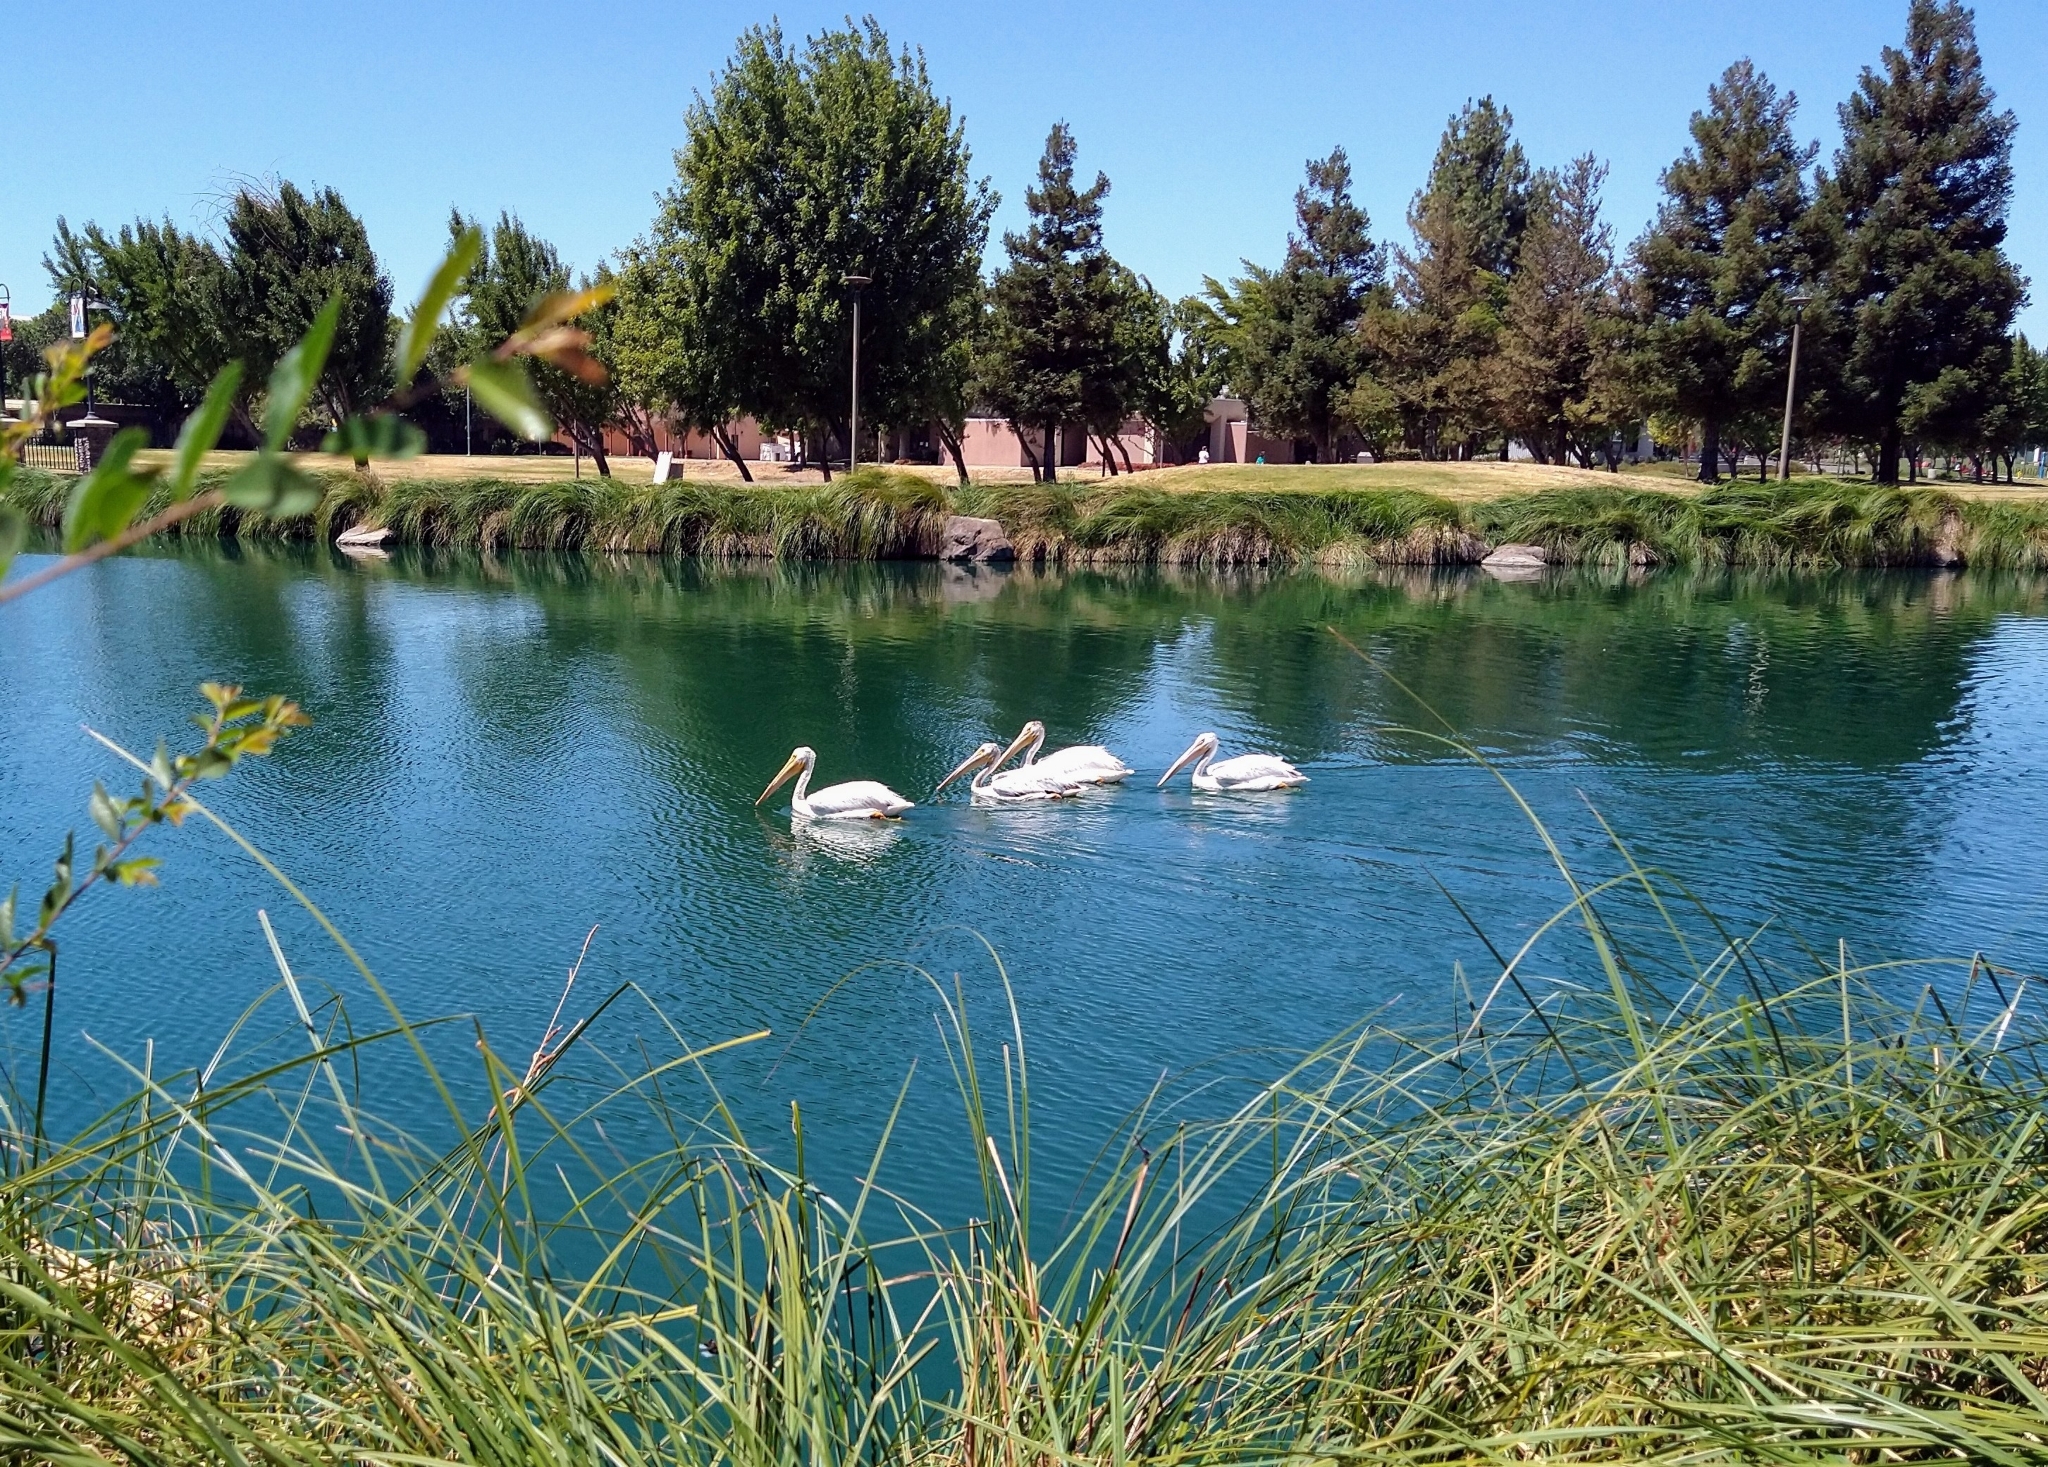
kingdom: Animalia
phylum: Chordata
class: Aves
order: Pelecaniformes
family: Pelecanidae
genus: Pelecanus
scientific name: Pelecanus erythrorhynchos
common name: American white pelican
